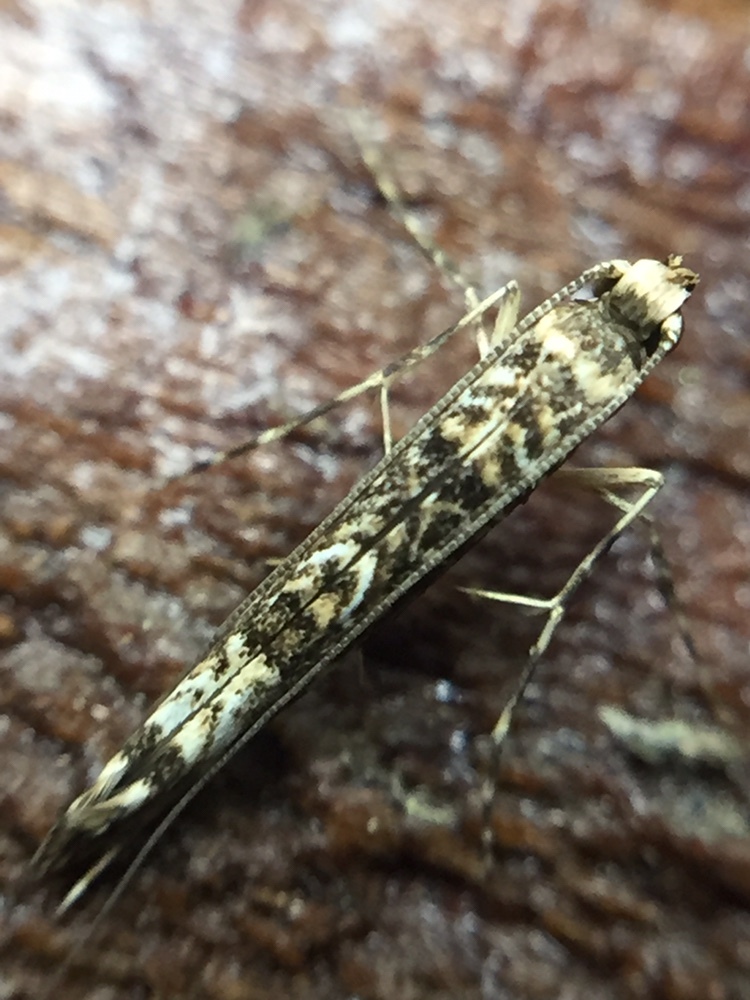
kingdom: Animalia
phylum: Arthropoda
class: Insecta
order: Lepidoptera
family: Gracillariidae
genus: Conopomorpha
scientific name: Conopomorpha cyanospila
